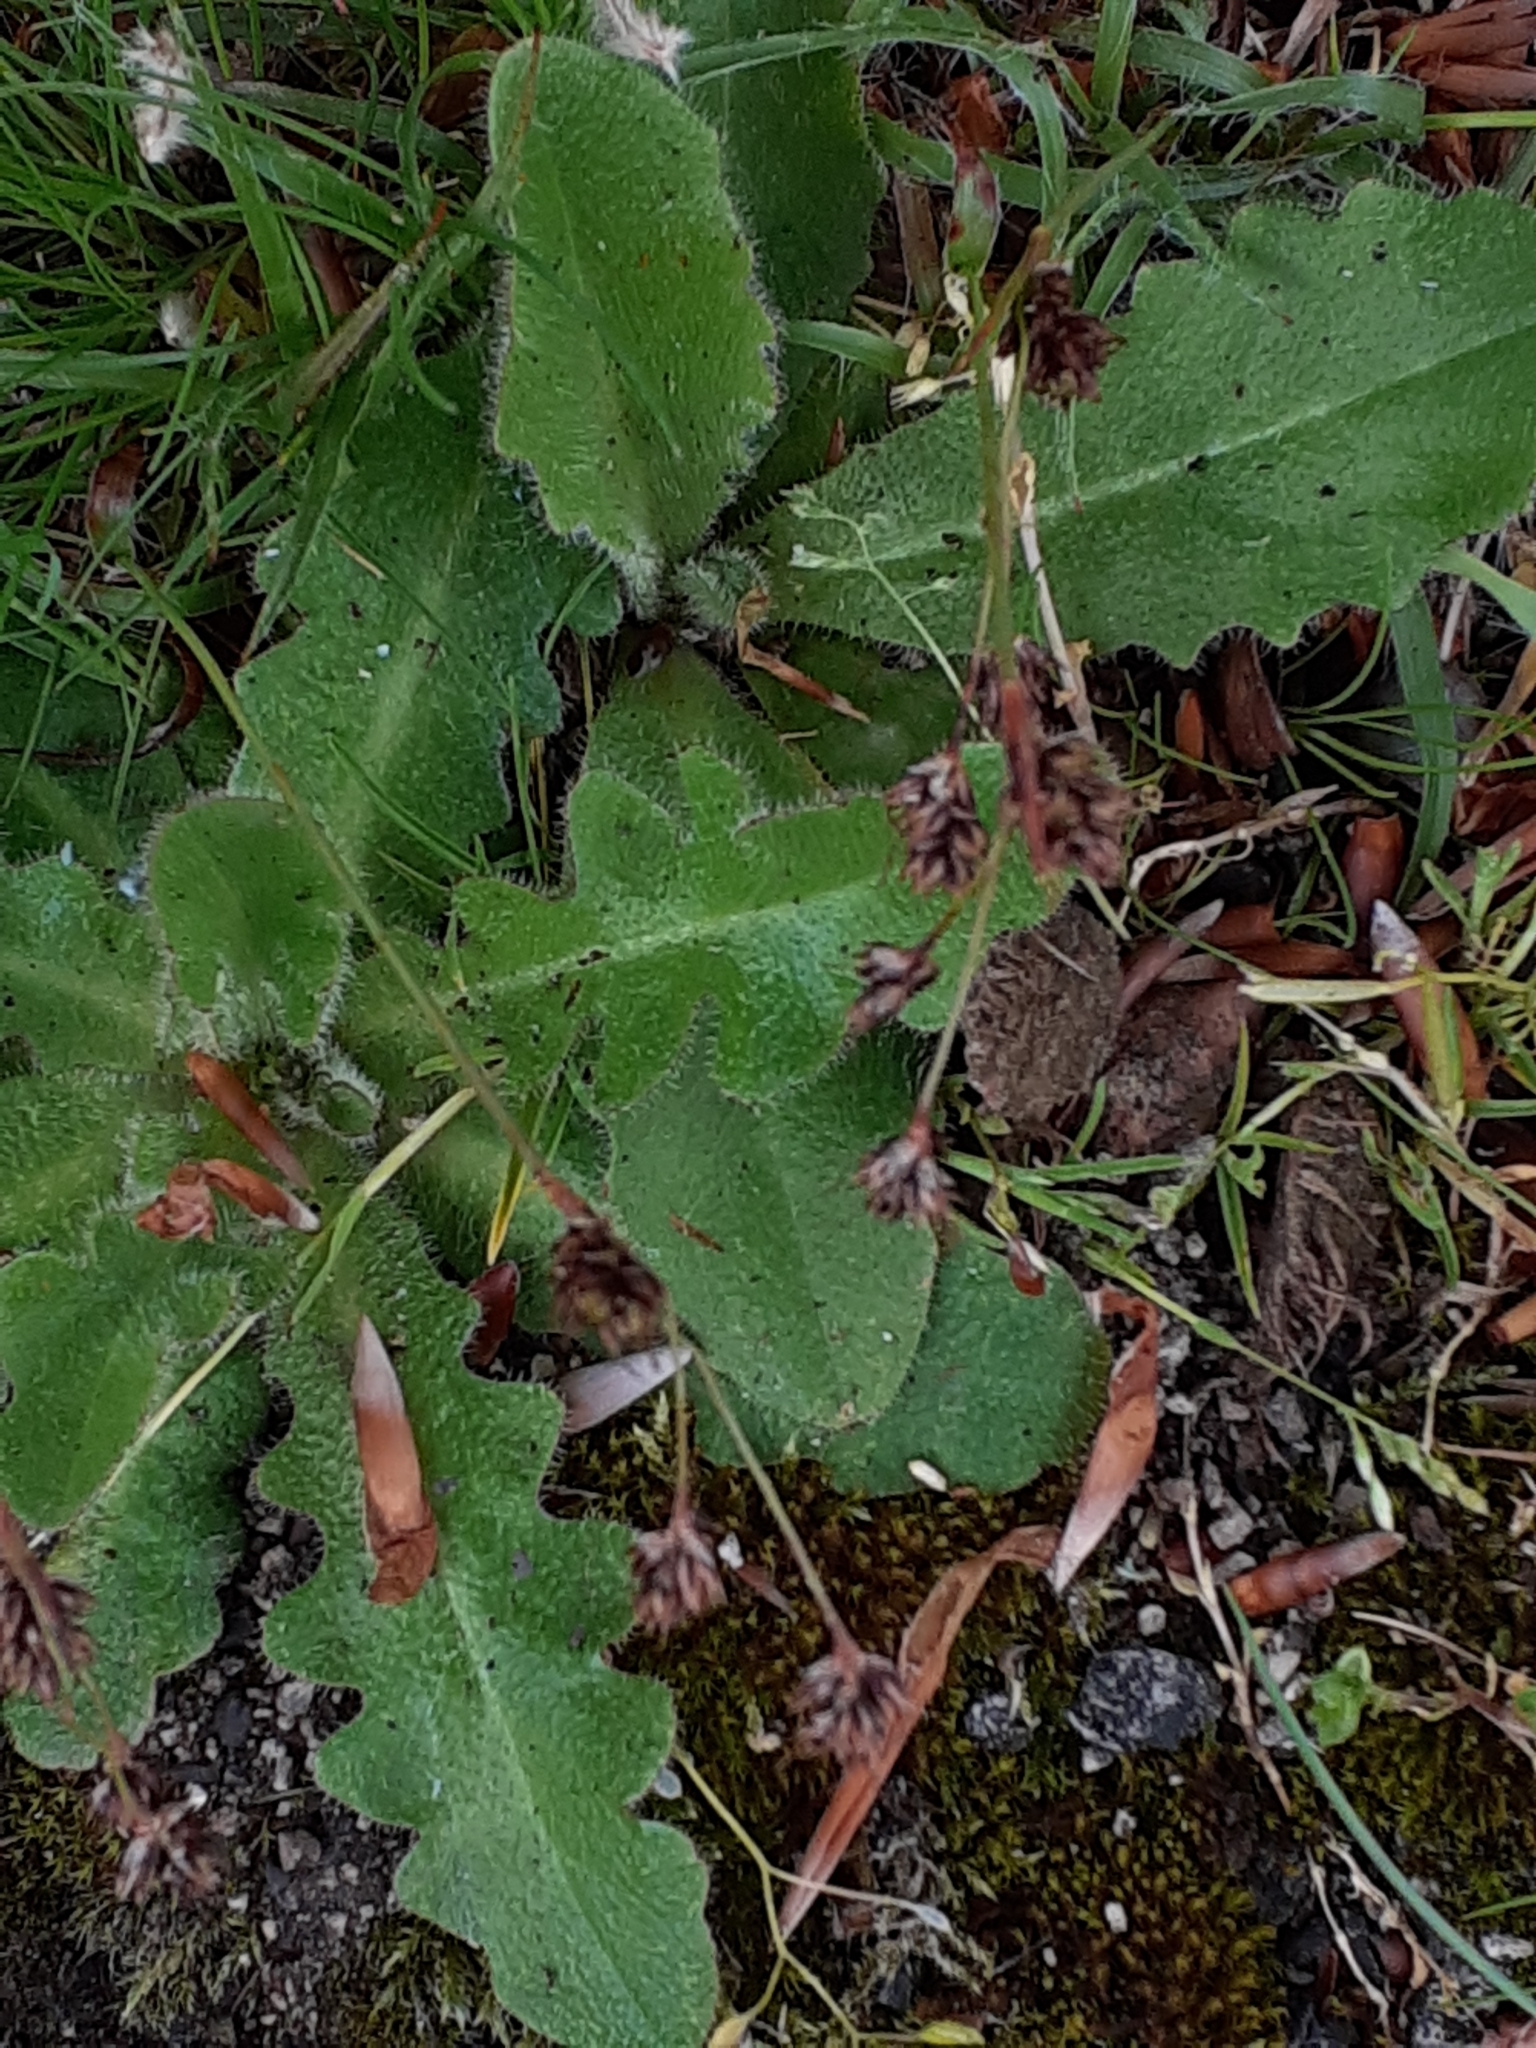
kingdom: Plantae
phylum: Tracheophyta
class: Magnoliopsida
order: Asterales
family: Asteraceae
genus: Hypochaeris
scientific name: Hypochaeris radicata
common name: Flatweed
